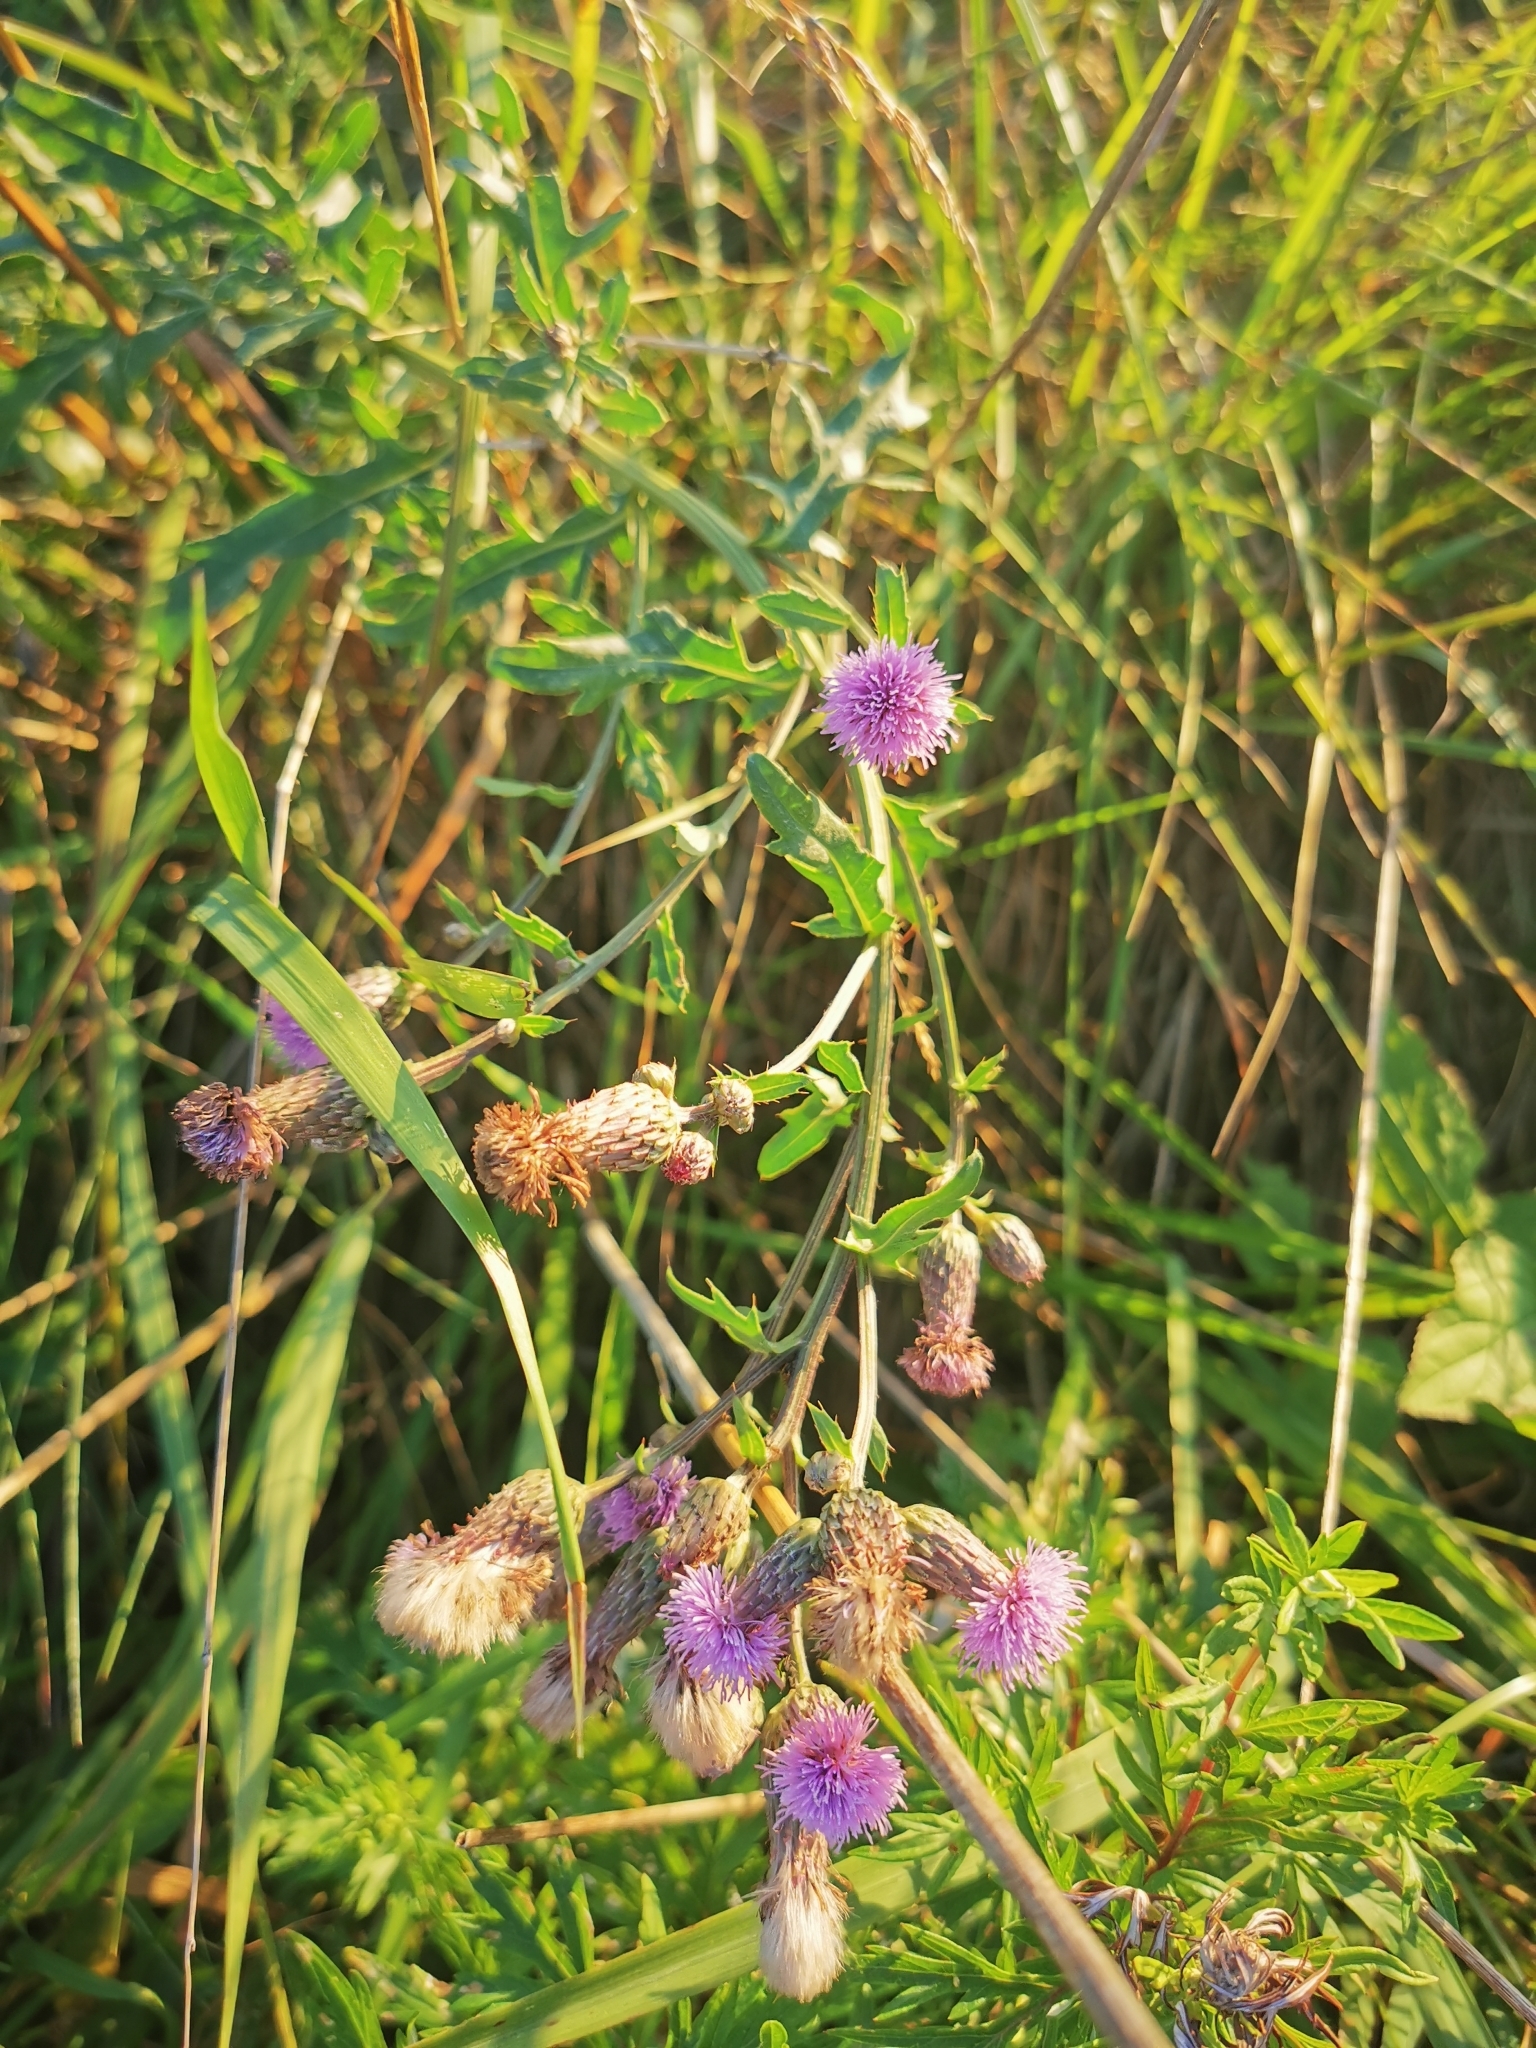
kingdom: Plantae
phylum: Tracheophyta
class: Magnoliopsida
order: Asterales
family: Asteraceae
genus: Cirsium
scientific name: Cirsium arvense
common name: Creeping thistle
